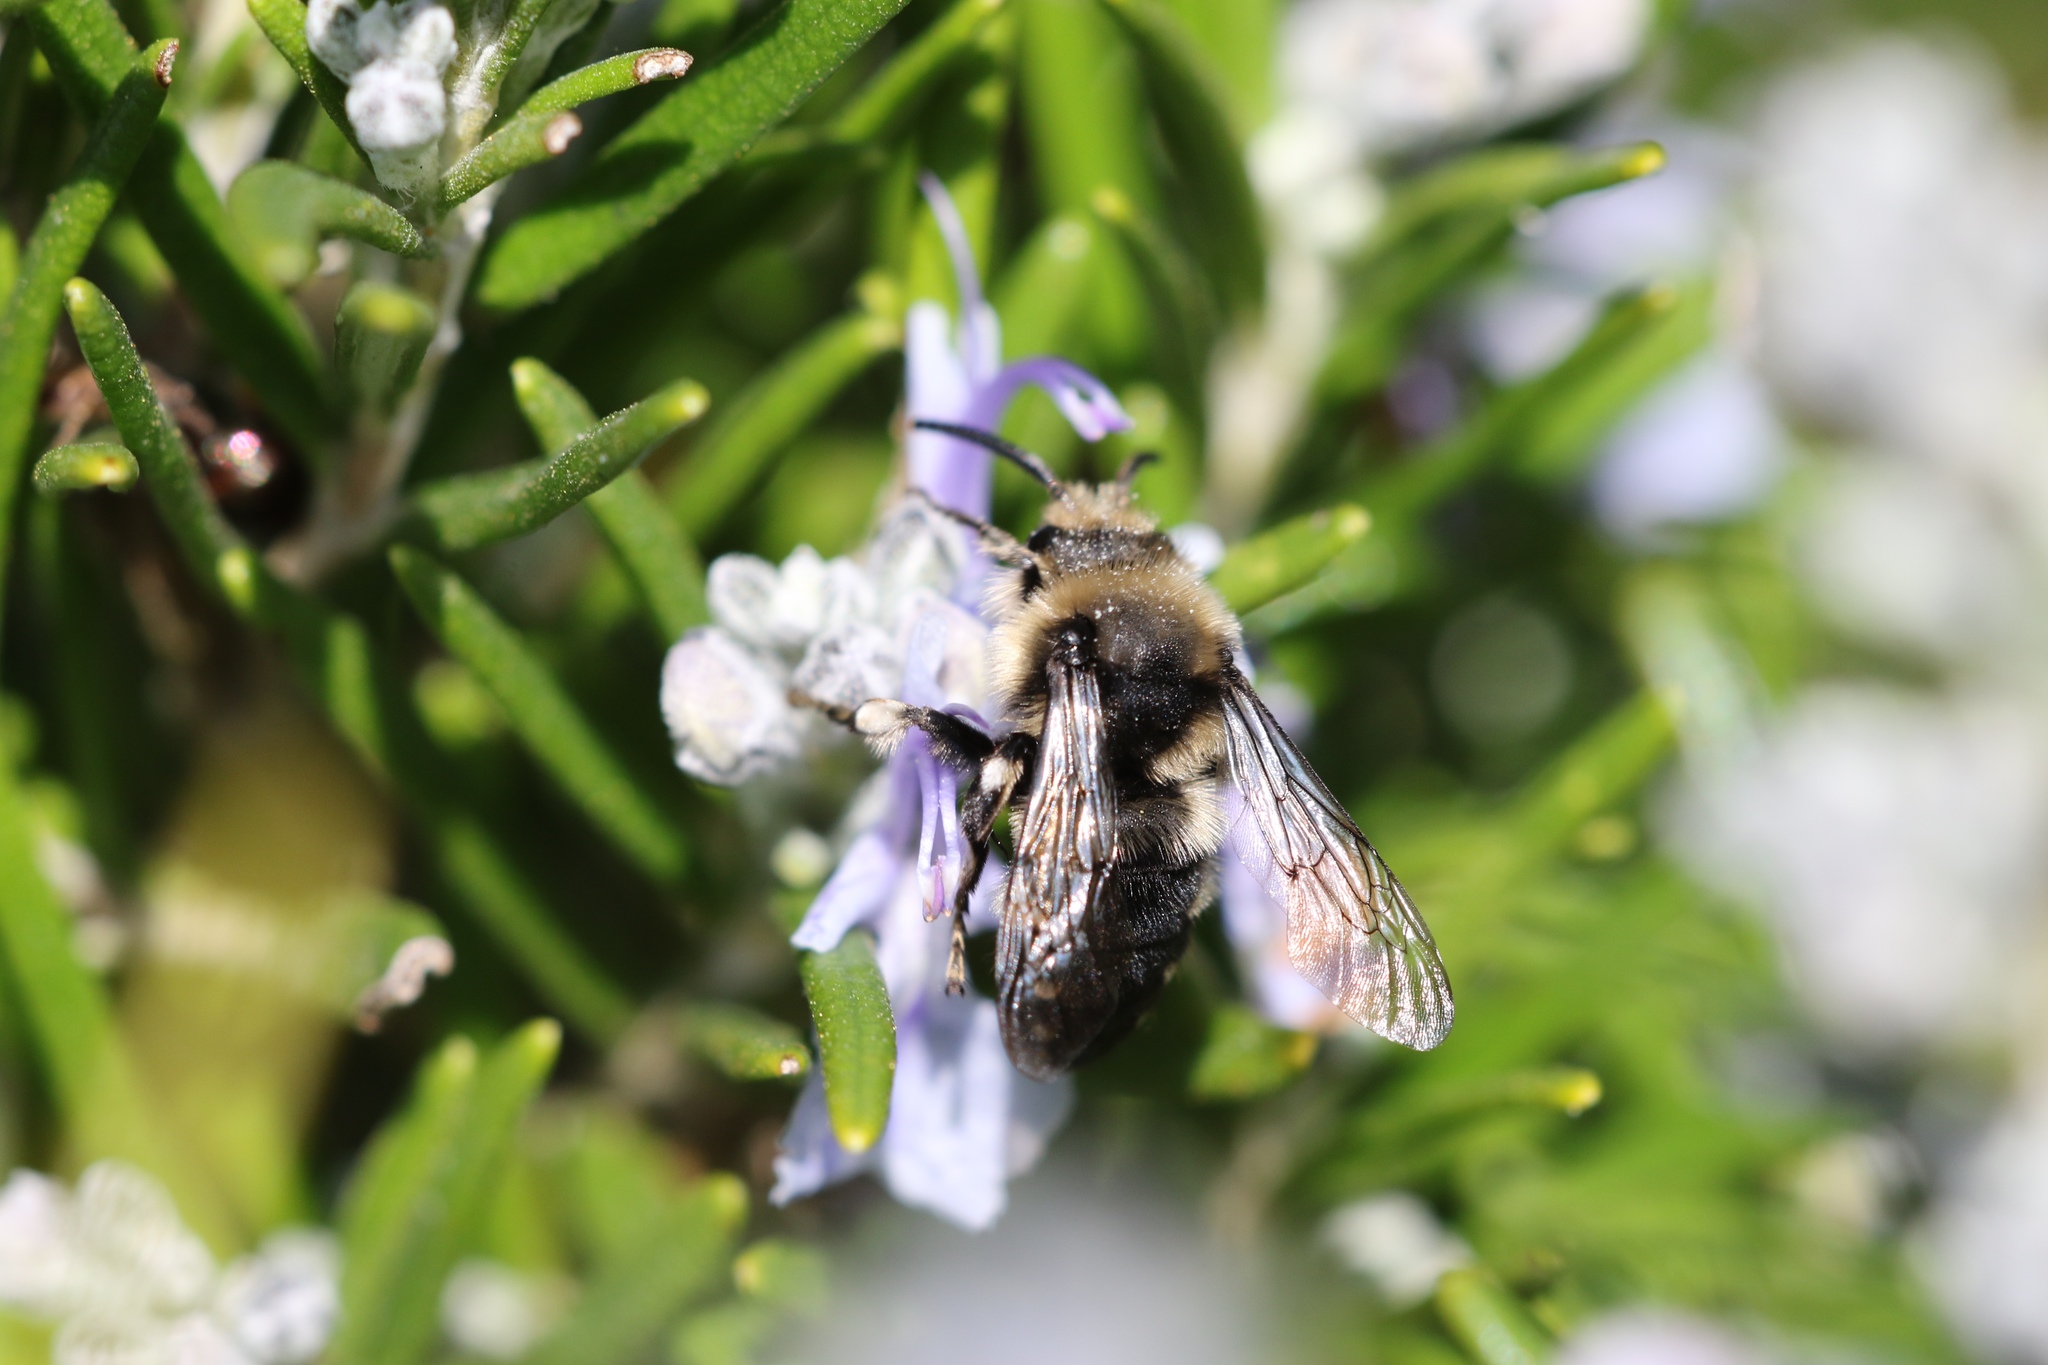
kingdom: Animalia
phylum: Arthropoda
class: Insecta
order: Hymenoptera
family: Apidae
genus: Melecta
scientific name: Melecta albifrons
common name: Common mourning bee
